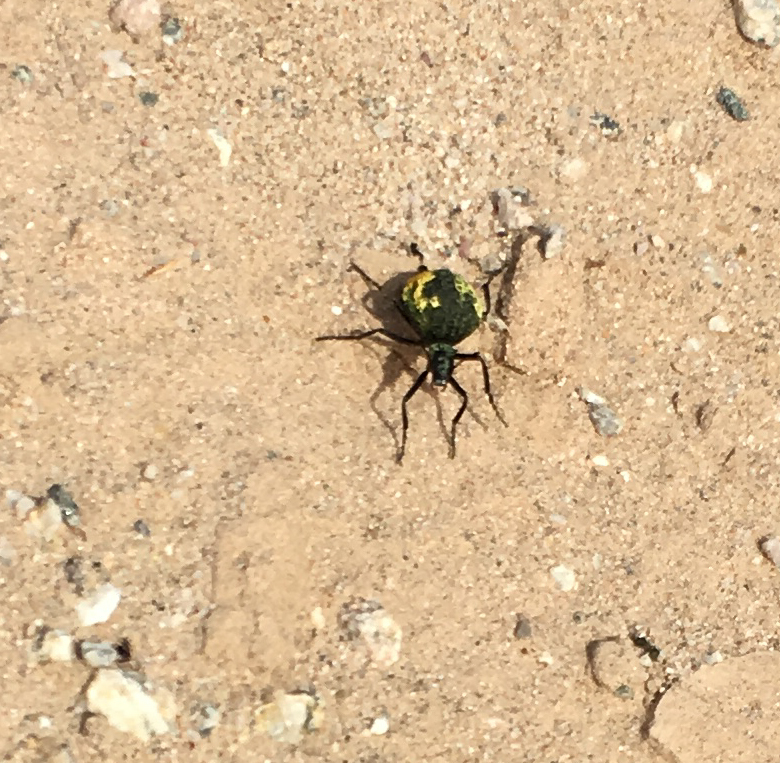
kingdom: Animalia
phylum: Arthropoda
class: Insecta
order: Coleoptera
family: Meloidae
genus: Cysteodemus
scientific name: Cysteodemus armatus
